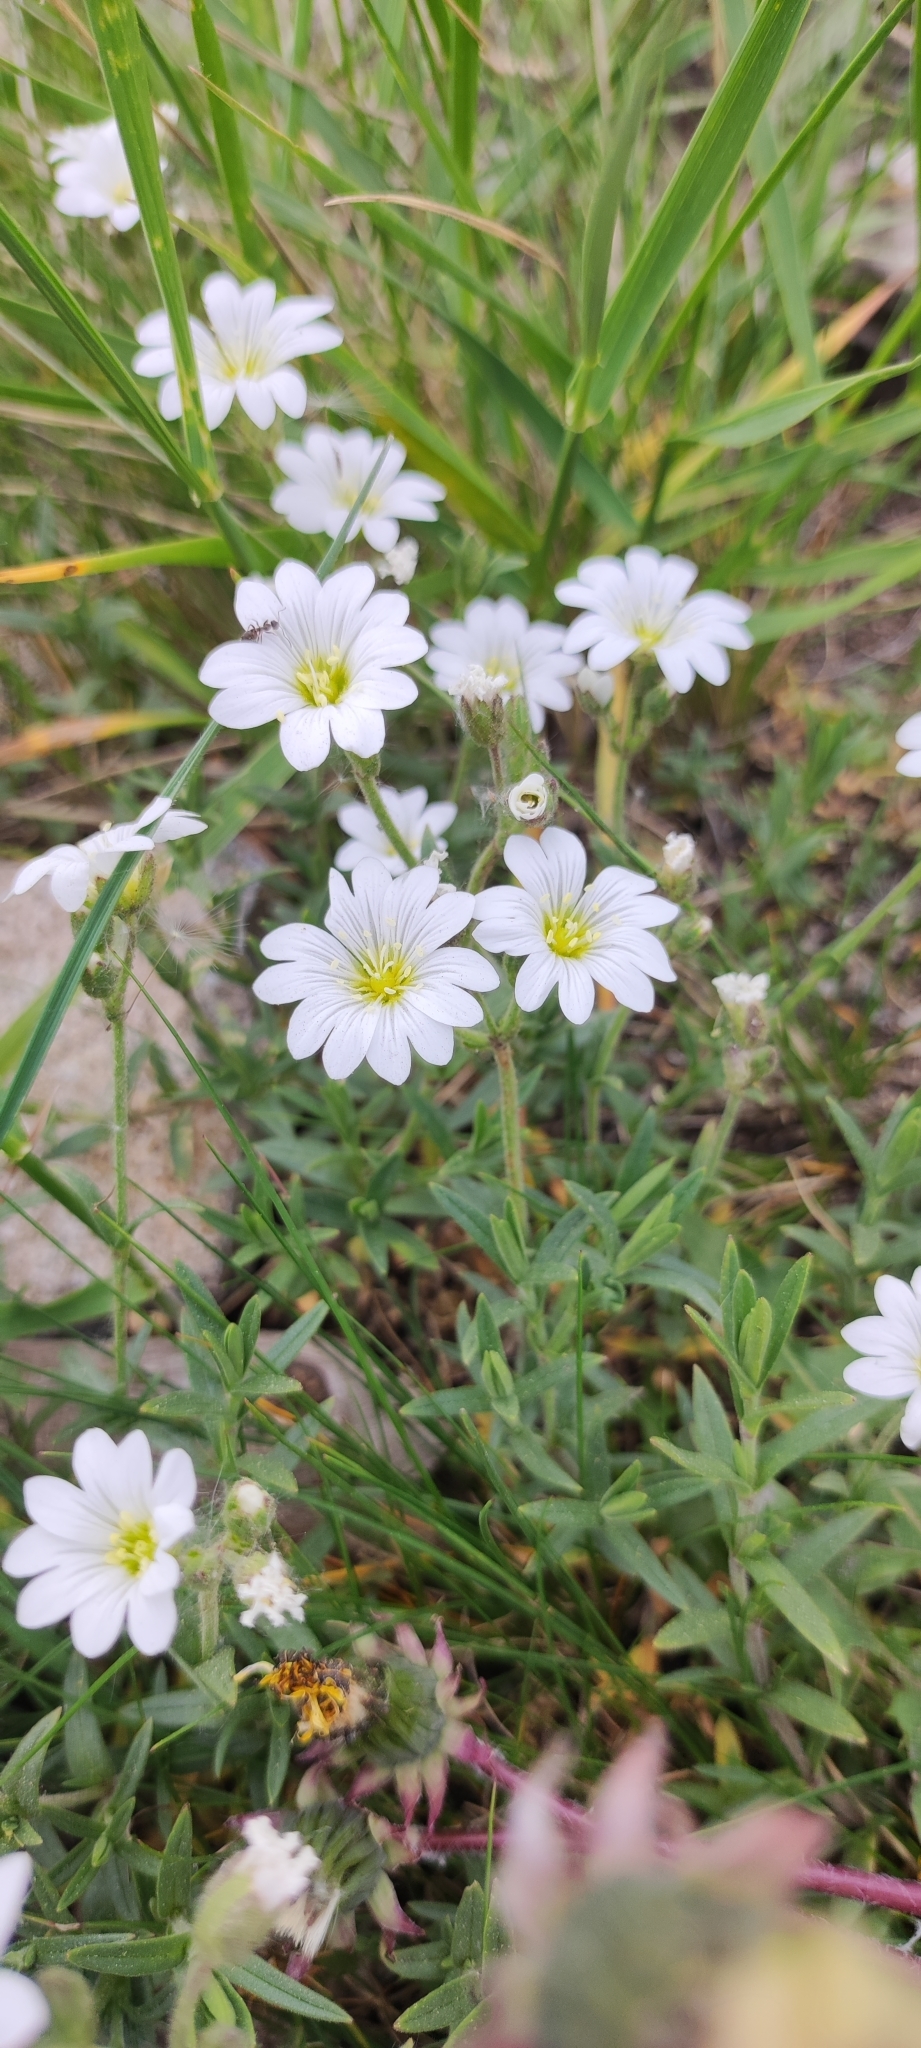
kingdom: Plantae
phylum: Tracheophyta
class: Magnoliopsida
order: Caryophyllales
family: Caryophyllaceae
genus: Cerastium
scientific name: Cerastium arvense
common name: Field mouse-ear
